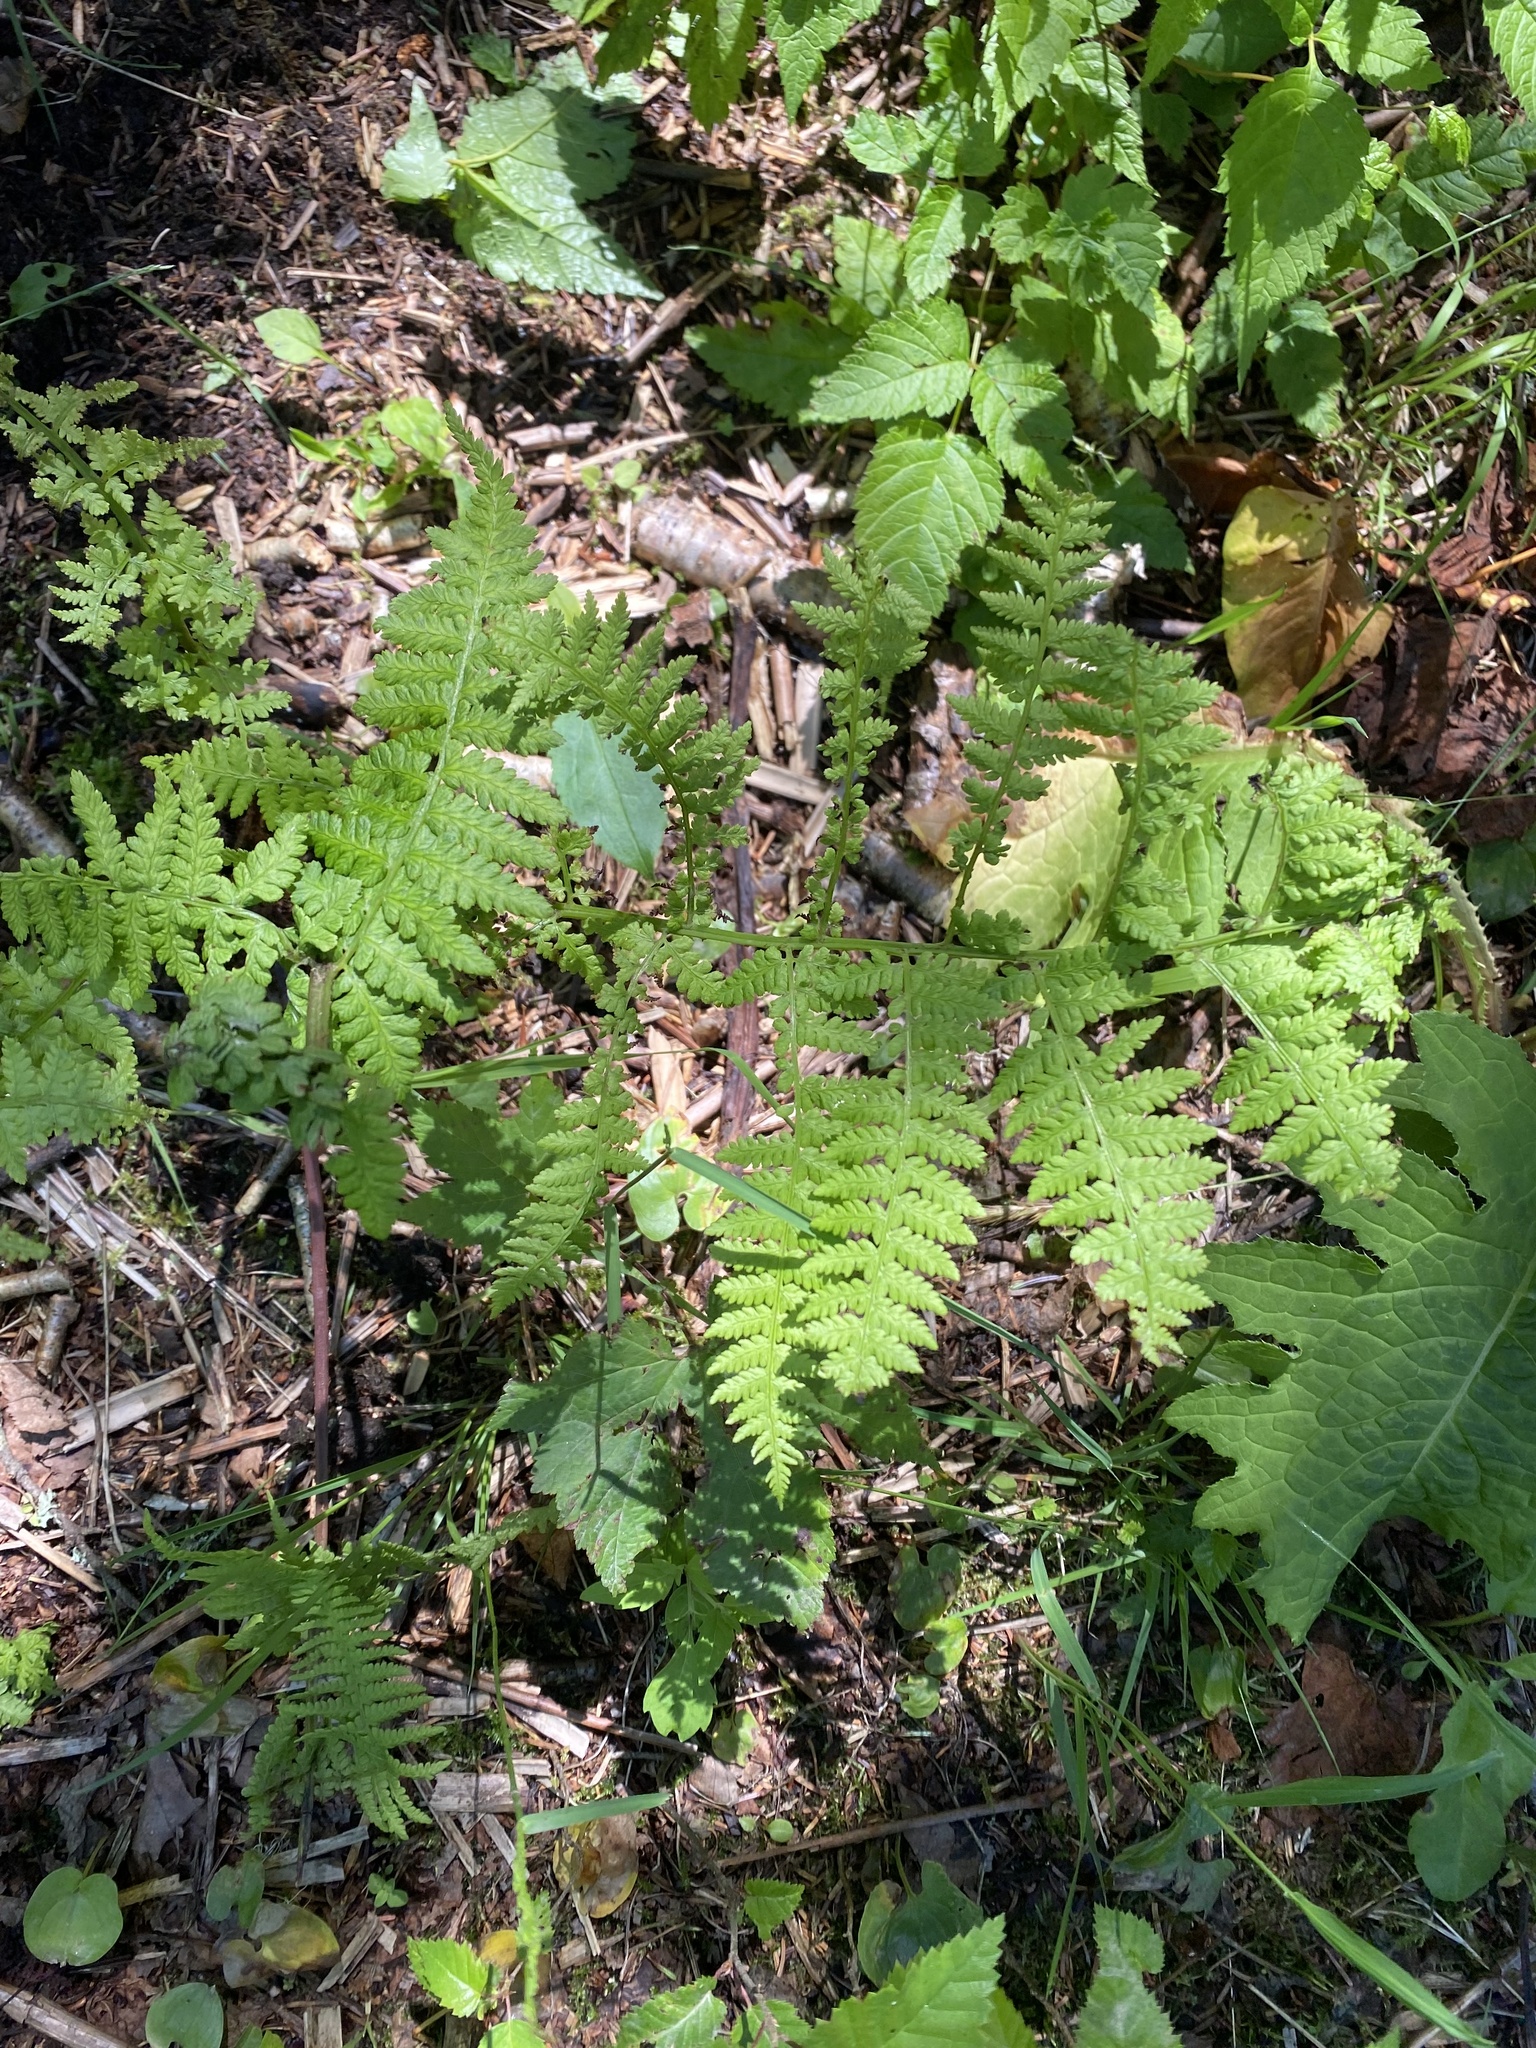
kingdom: Plantae
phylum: Tracheophyta
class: Polypodiopsida
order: Polypodiales
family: Dennstaedtiaceae
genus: Pteridium
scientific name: Pteridium aquilinum
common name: Bracken
